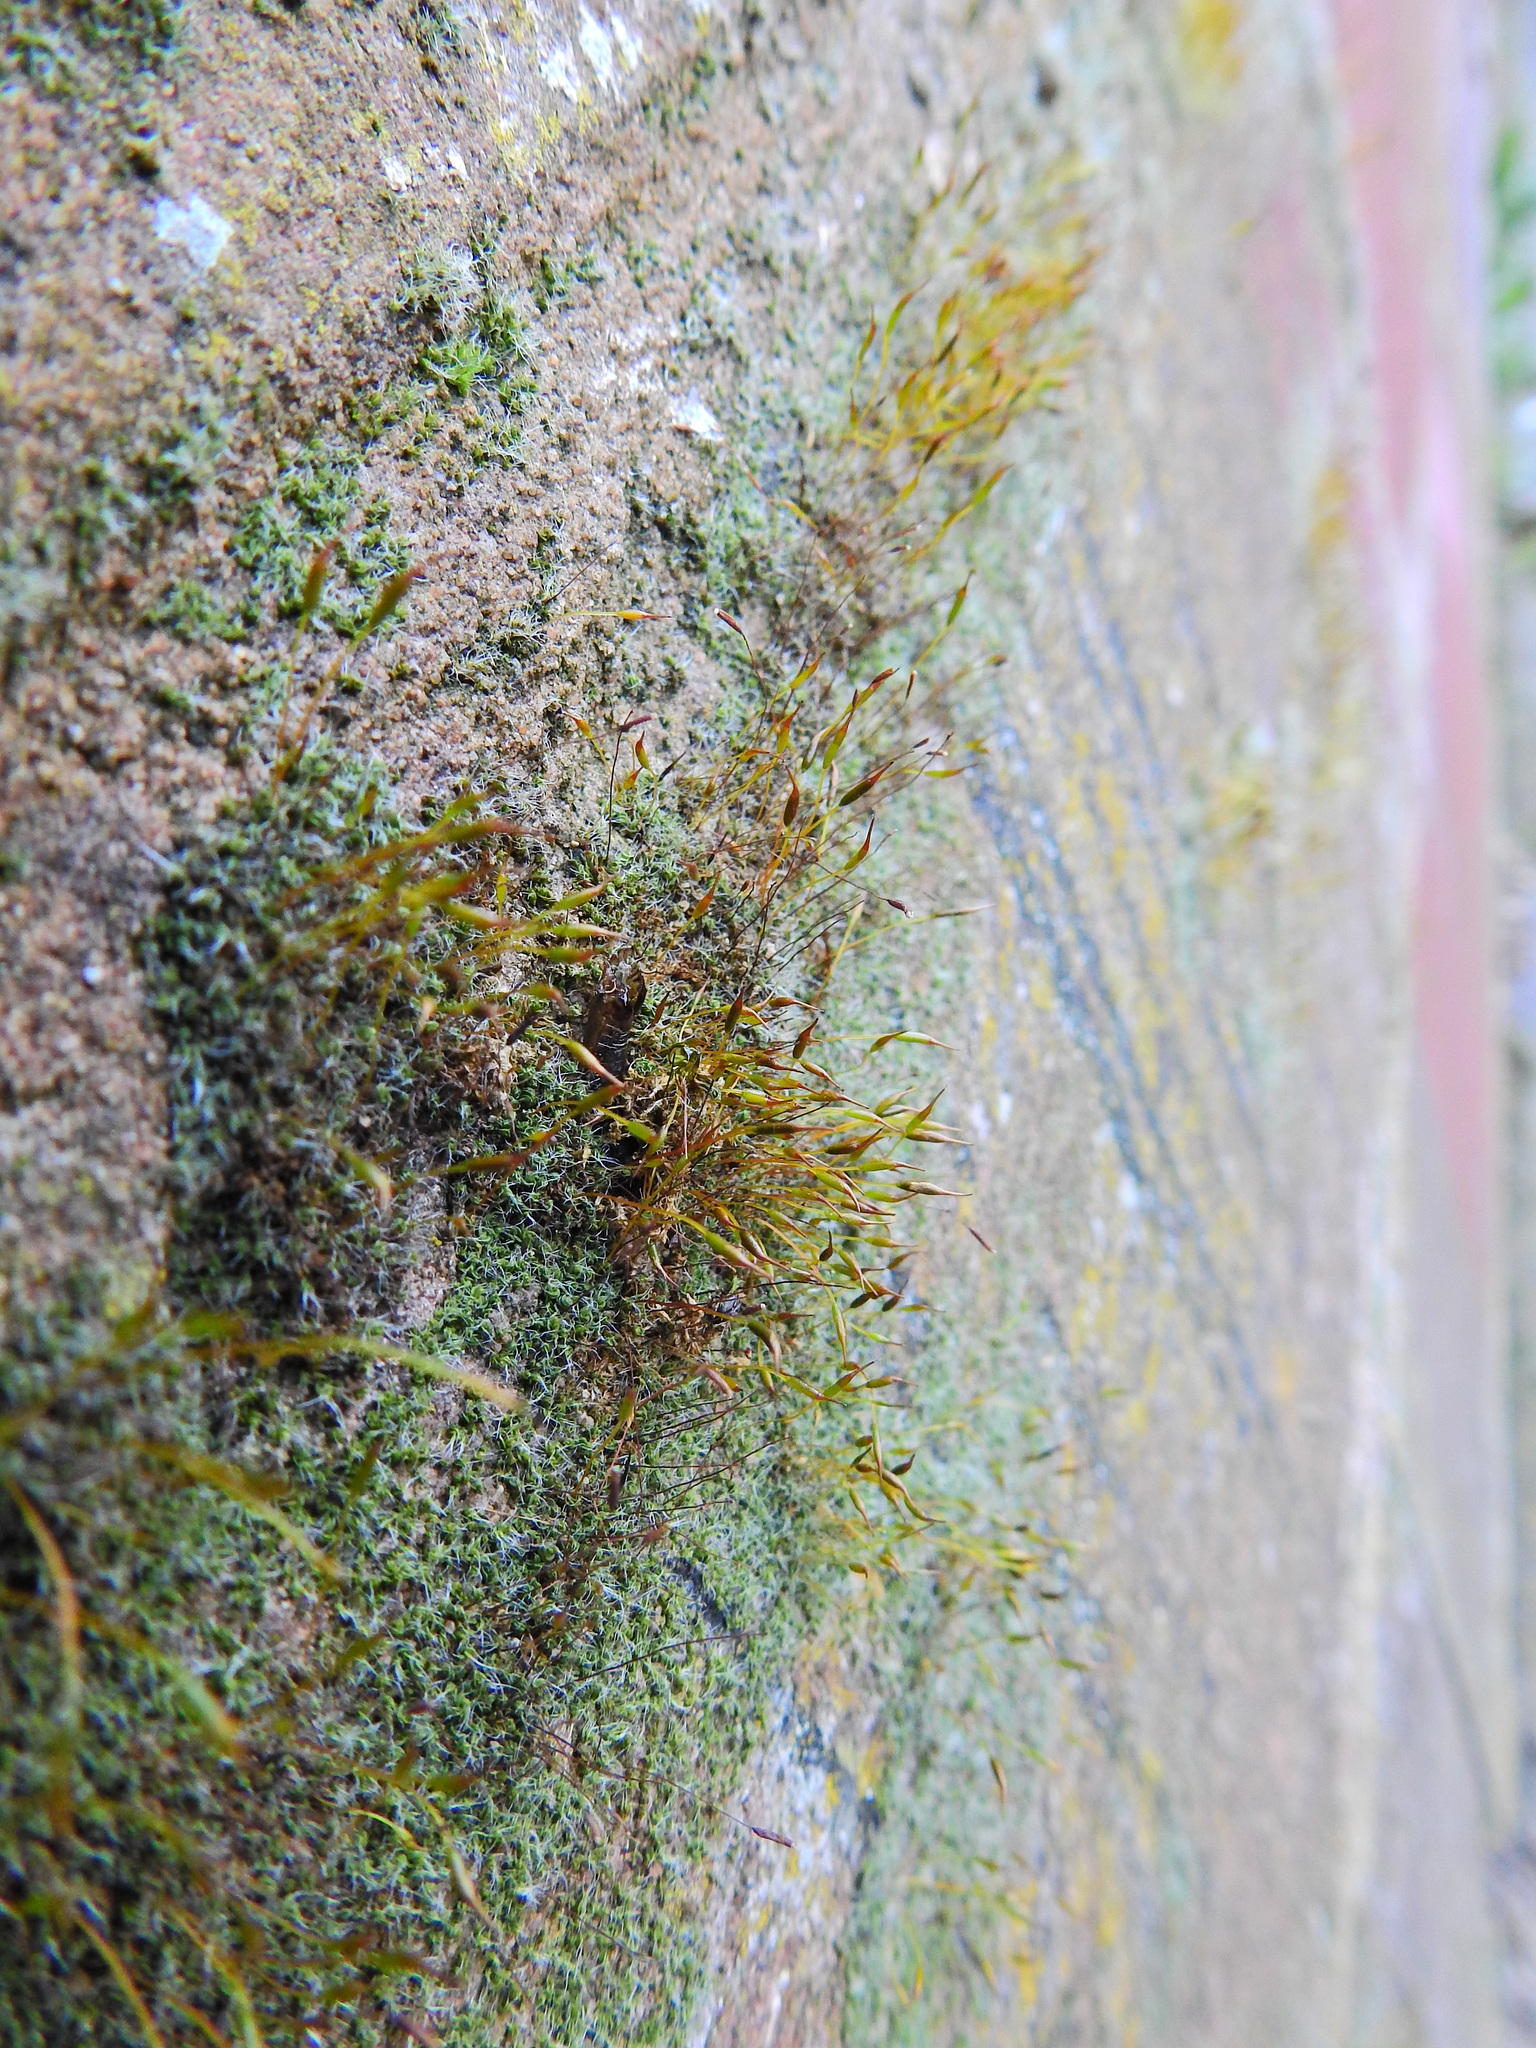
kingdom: Plantae
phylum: Bryophyta
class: Bryopsida
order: Pottiales
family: Pottiaceae
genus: Tortula
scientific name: Tortula muralis
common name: Wall screw-moss
